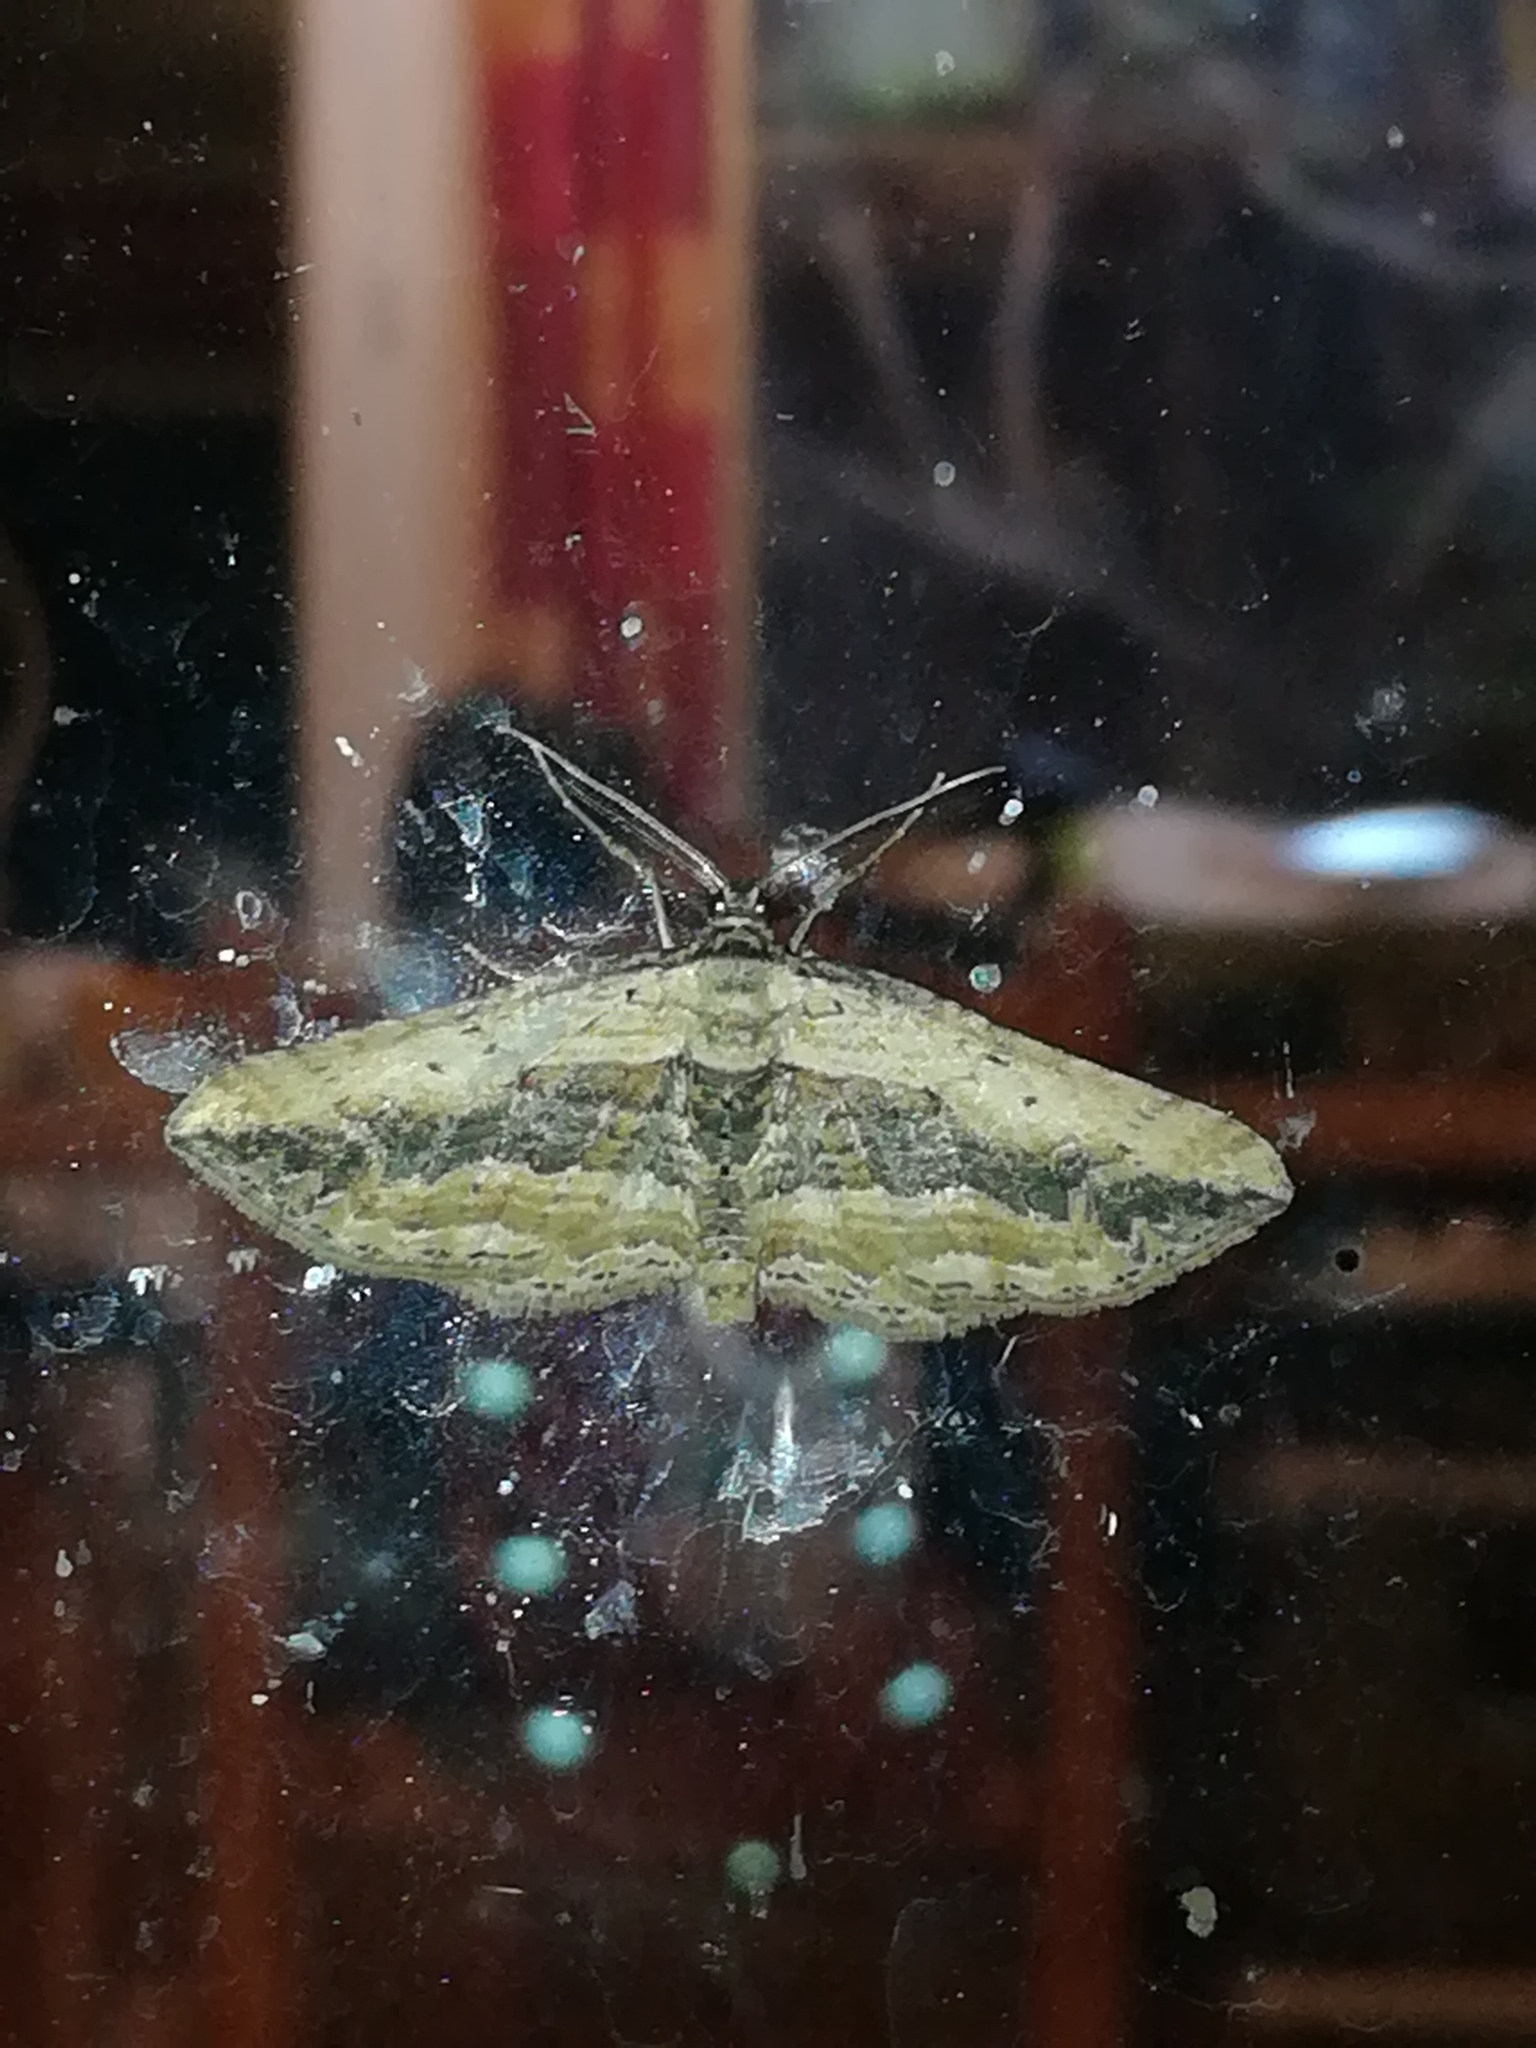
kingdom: Animalia
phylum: Arthropoda
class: Insecta
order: Lepidoptera
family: Geometridae
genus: Horisme
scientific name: Horisme vitalbata
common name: Small waved umber
